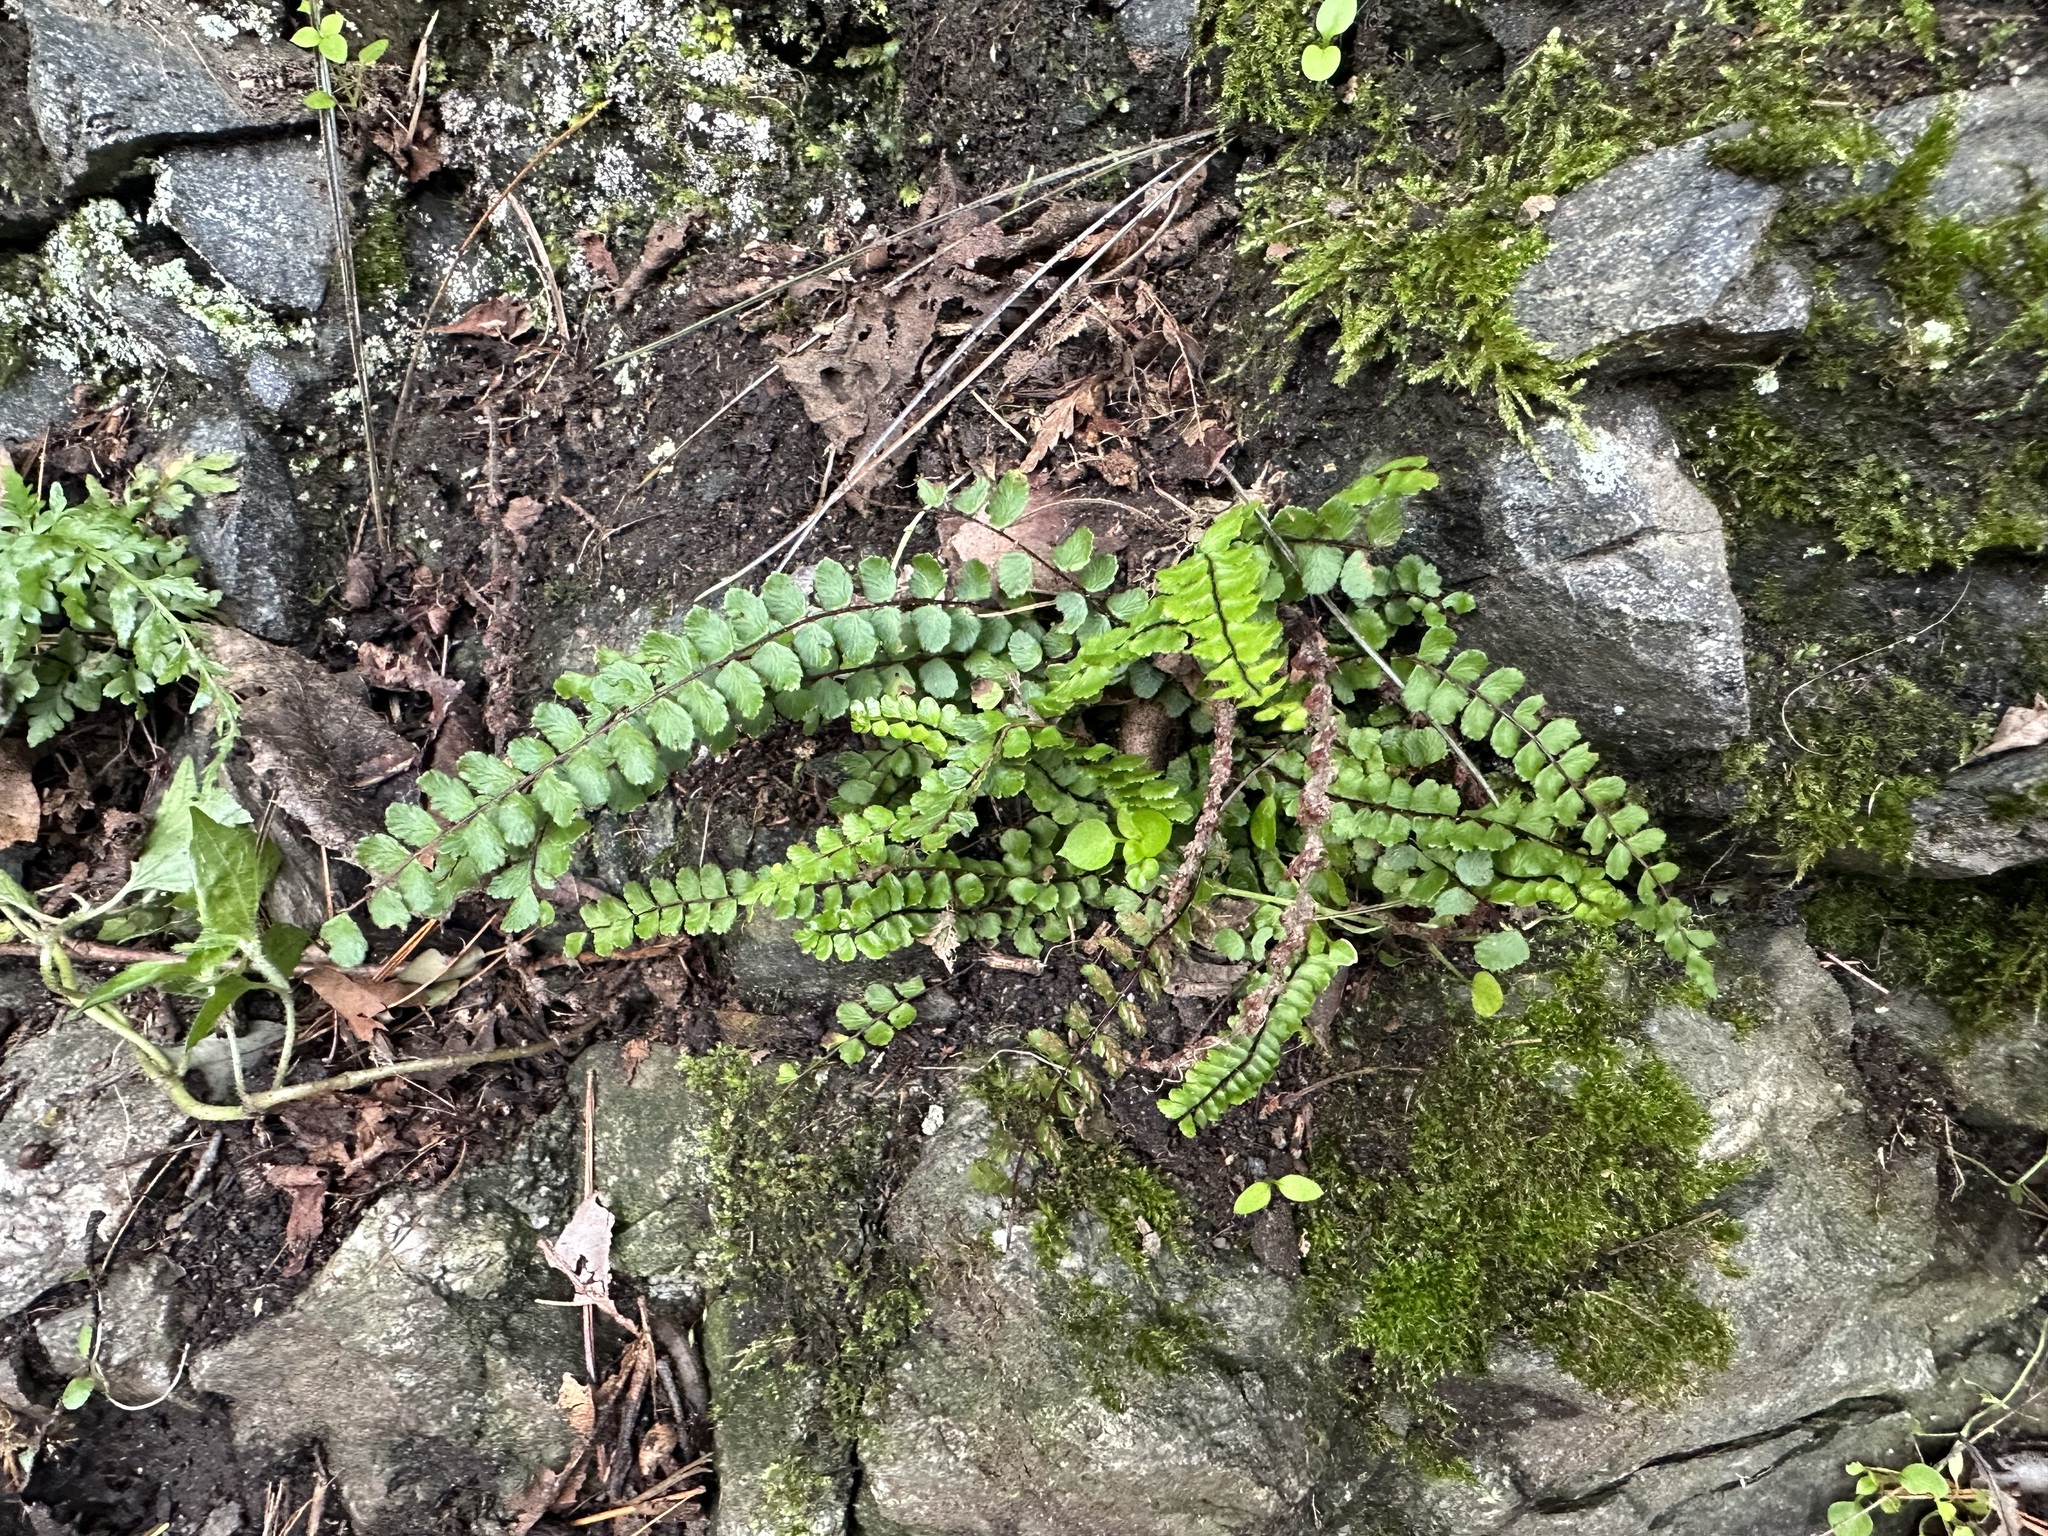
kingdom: Plantae
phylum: Tracheophyta
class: Polypodiopsida
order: Polypodiales
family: Aspleniaceae
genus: Asplenium
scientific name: Asplenium trichomanes
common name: Maidenhair spleenwort
